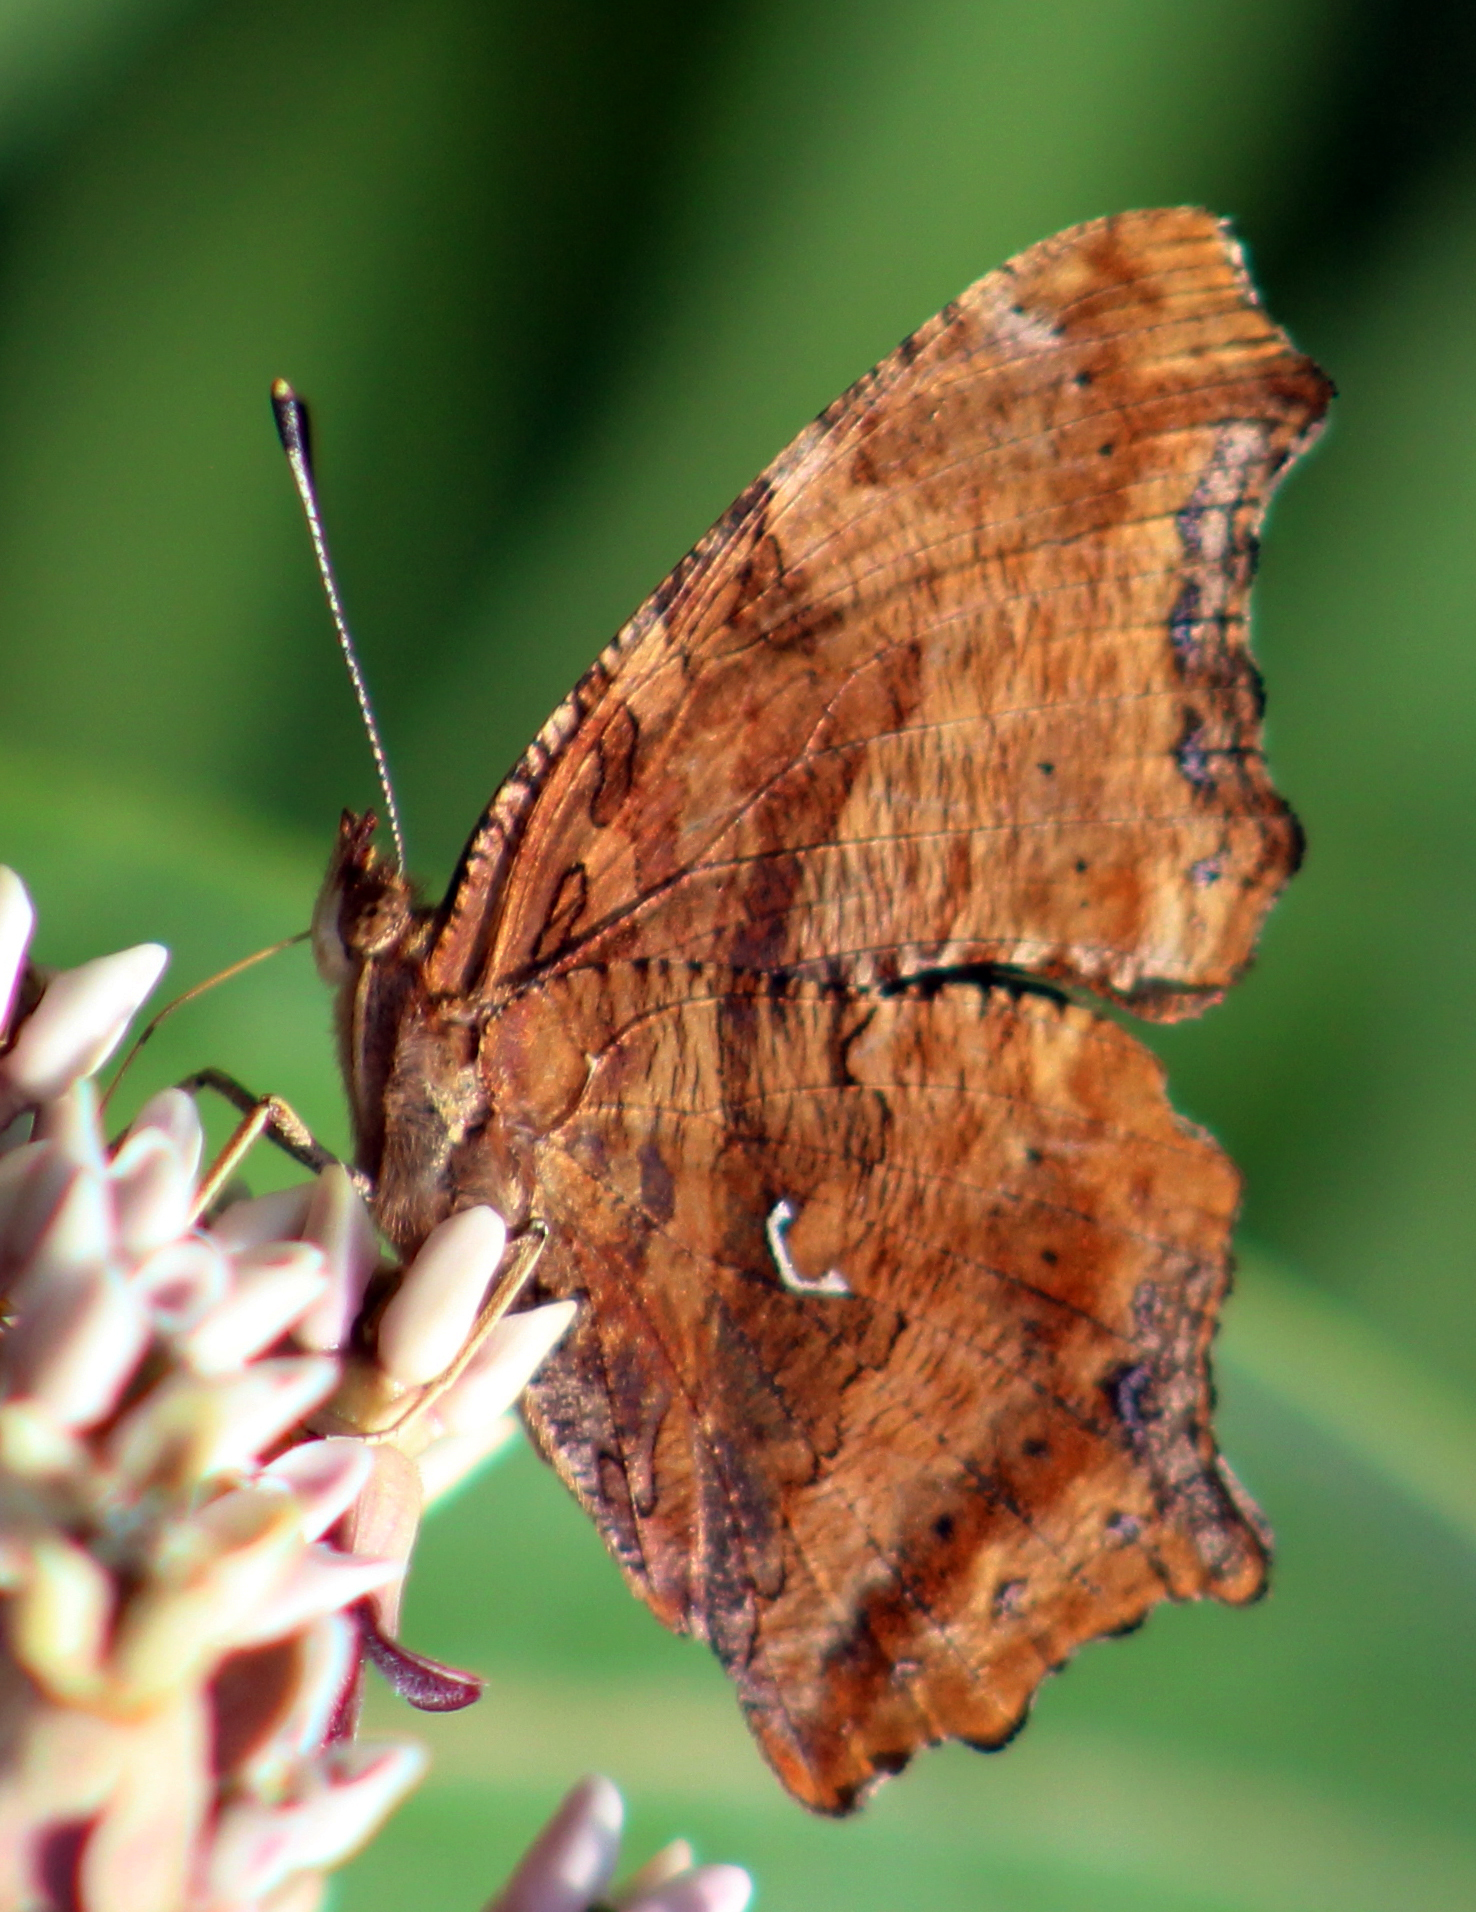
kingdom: Animalia
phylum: Arthropoda
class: Insecta
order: Lepidoptera
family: Nymphalidae
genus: Polygonia
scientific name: Polygonia comma
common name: Eastern comma
